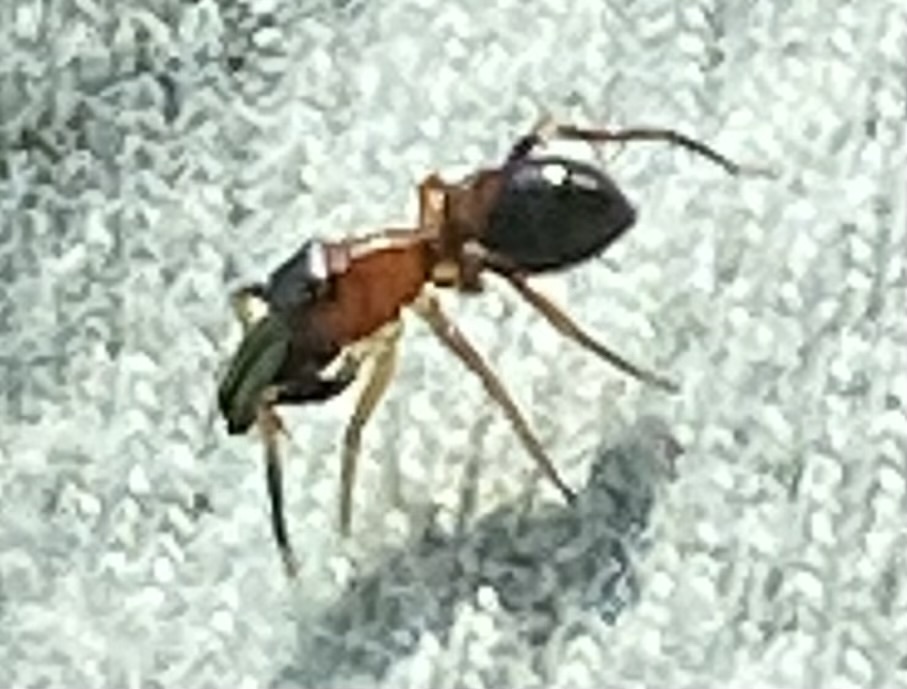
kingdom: Animalia
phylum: Arthropoda
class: Arachnida
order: Araneae
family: Salticidae
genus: Myrmarachne
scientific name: Myrmarachne formicaria
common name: Ant mimic jumping spider
